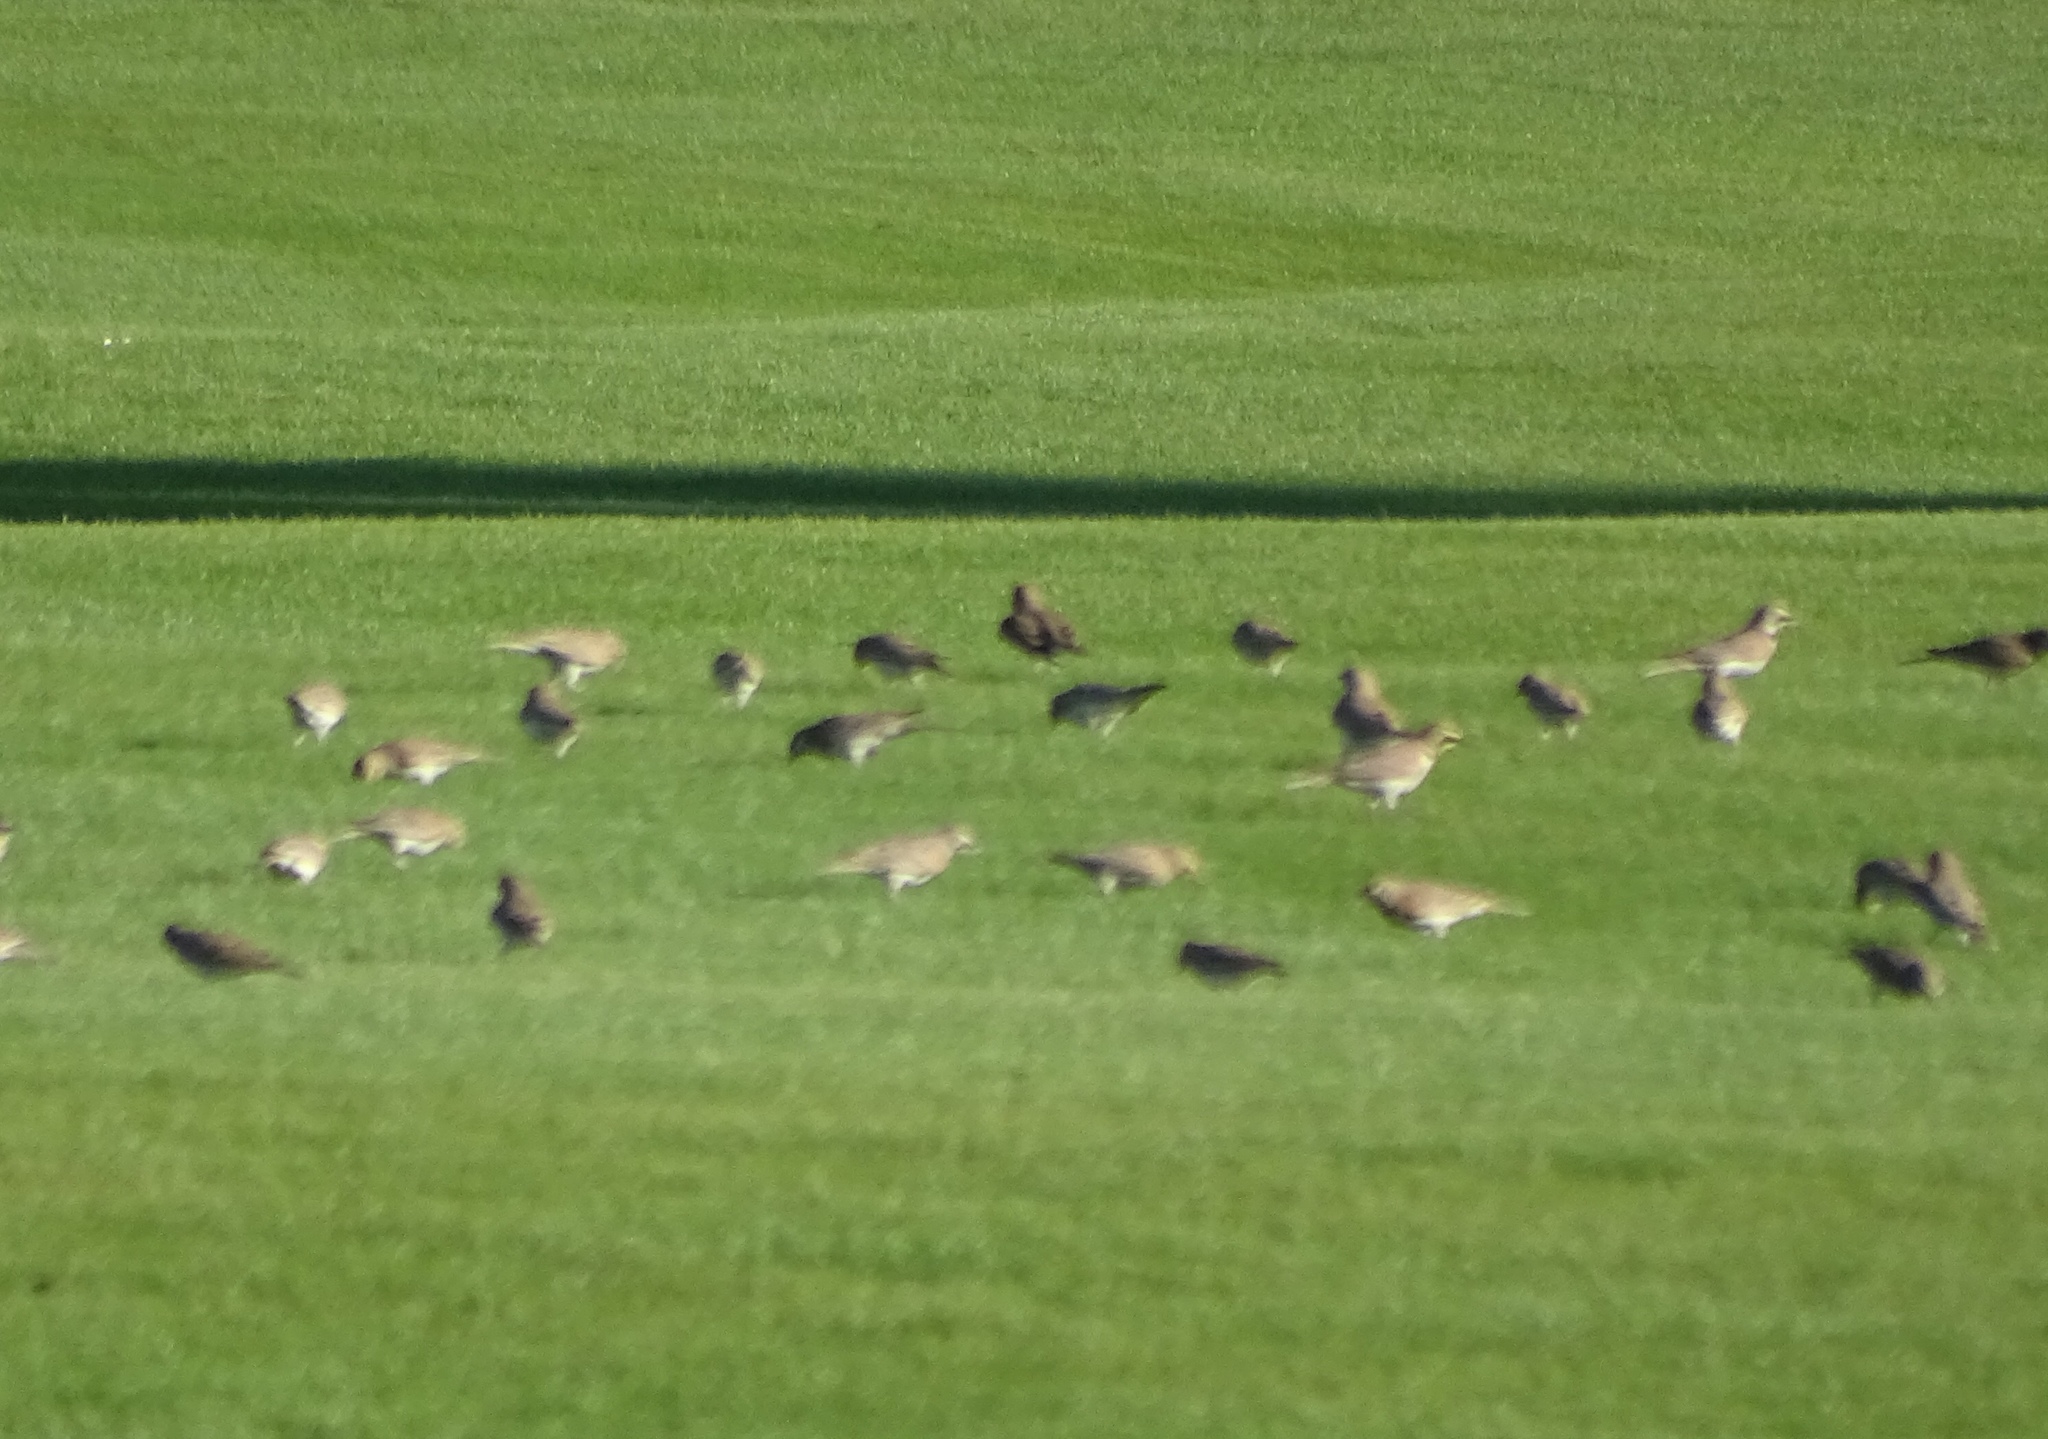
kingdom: Animalia
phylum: Chordata
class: Aves
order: Passeriformes
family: Alaudidae
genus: Eremophila
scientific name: Eremophila alpestris
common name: Horned lark
